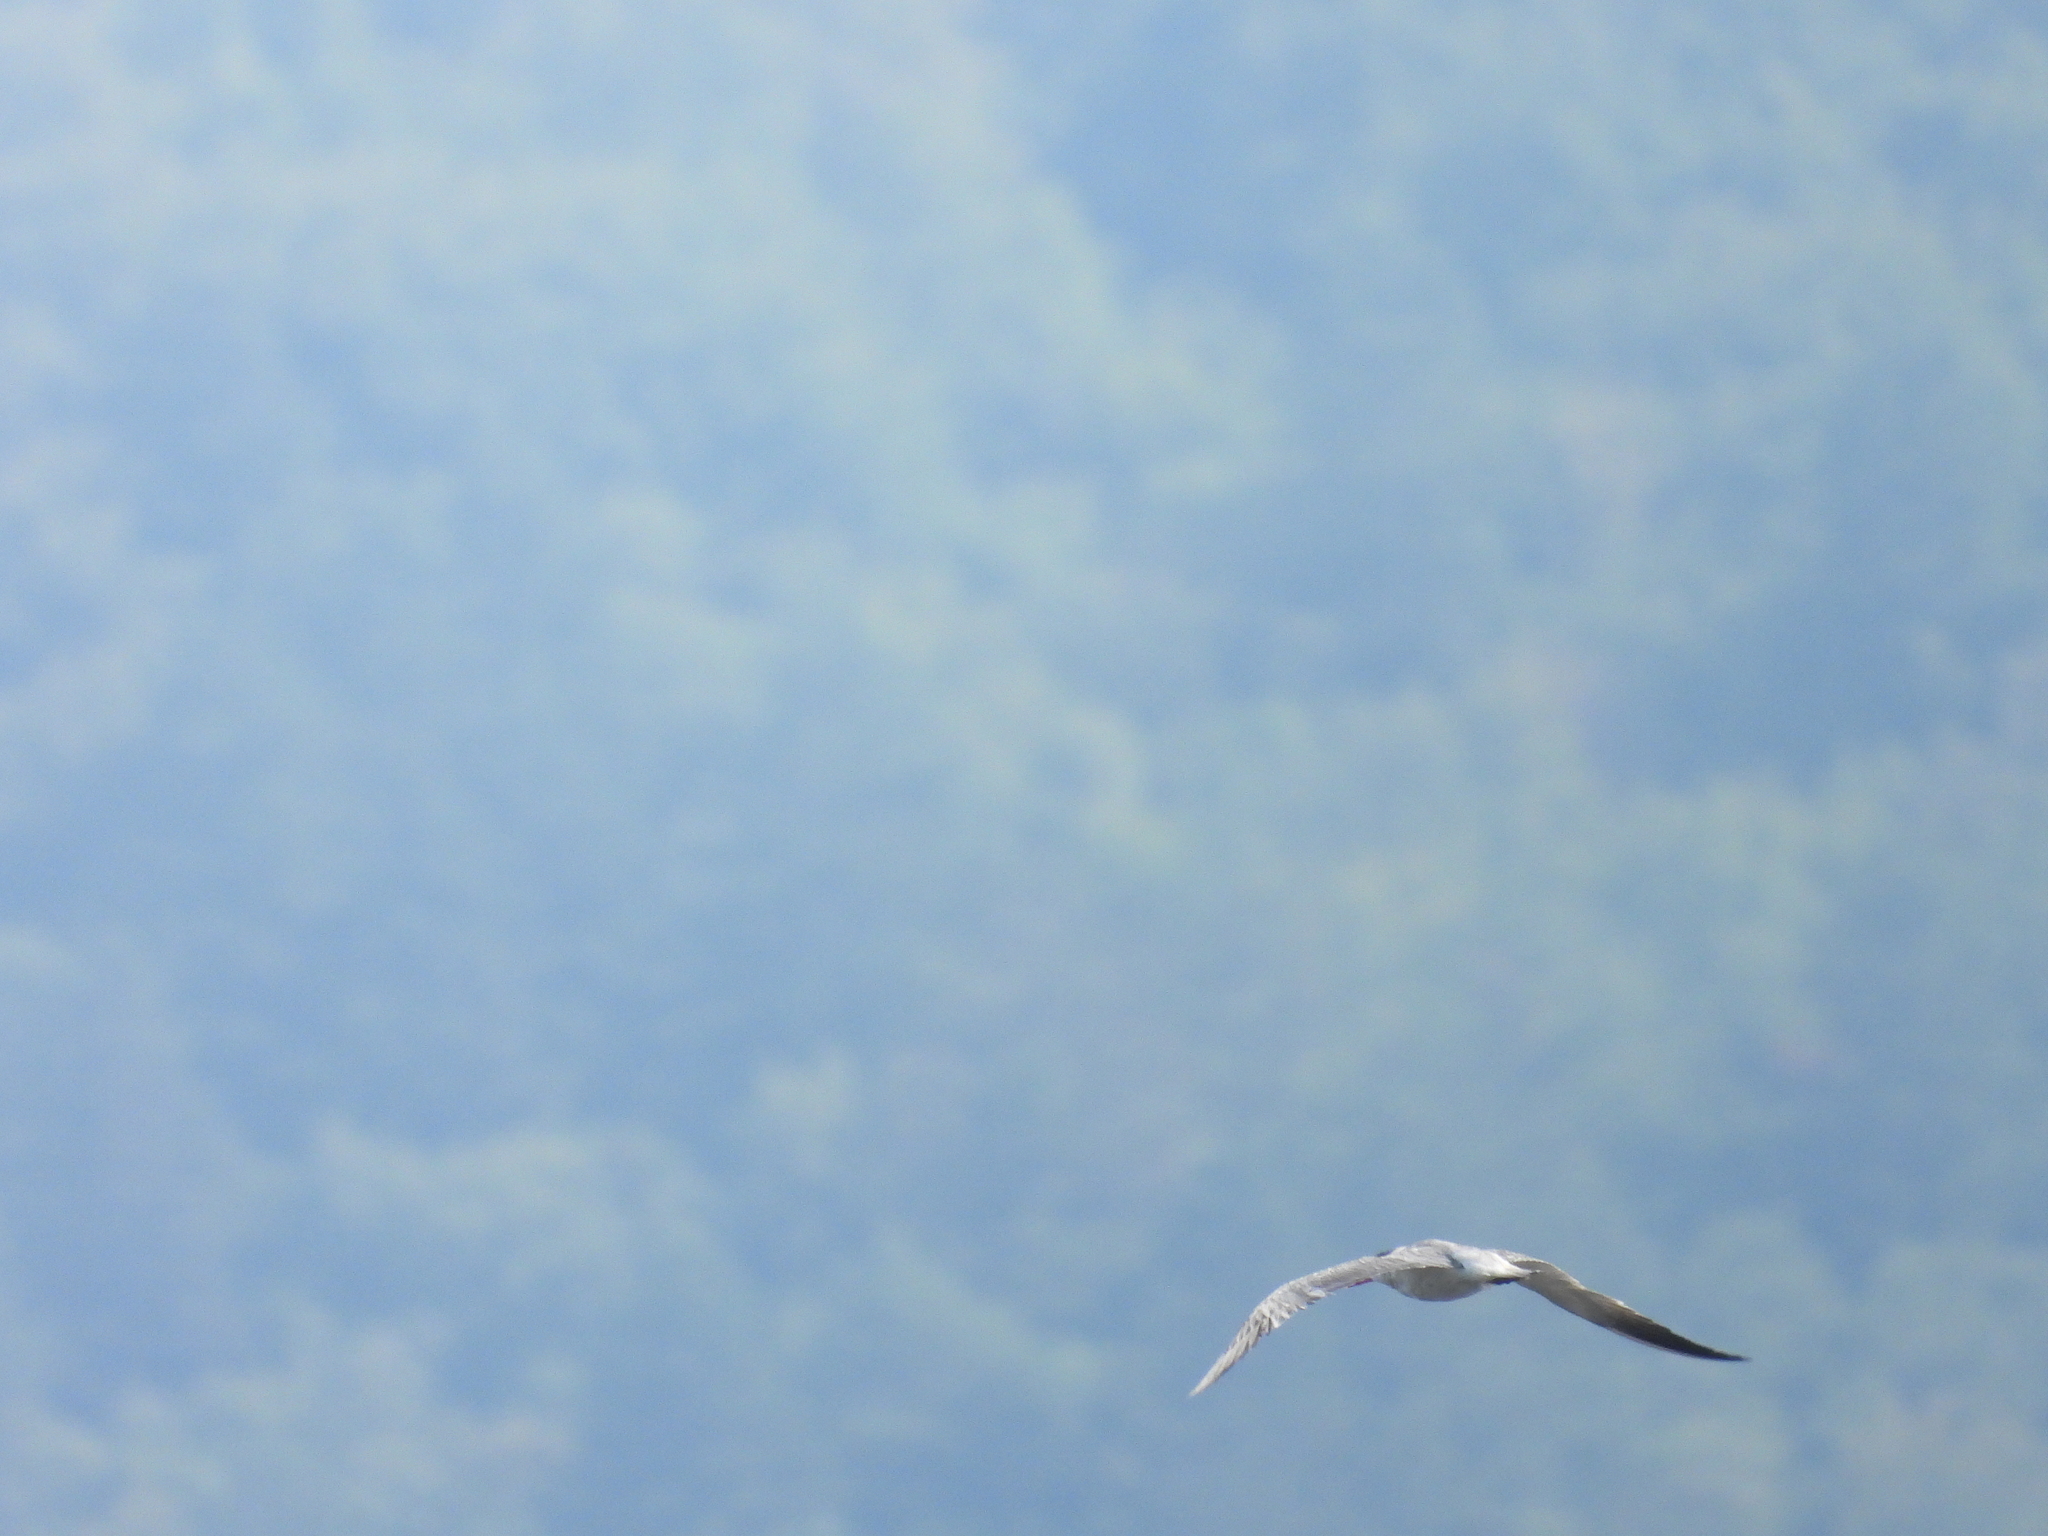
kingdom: Animalia
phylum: Chordata
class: Aves
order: Charadriiformes
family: Laridae
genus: Hydroprogne
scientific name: Hydroprogne caspia
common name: Caspian tern
